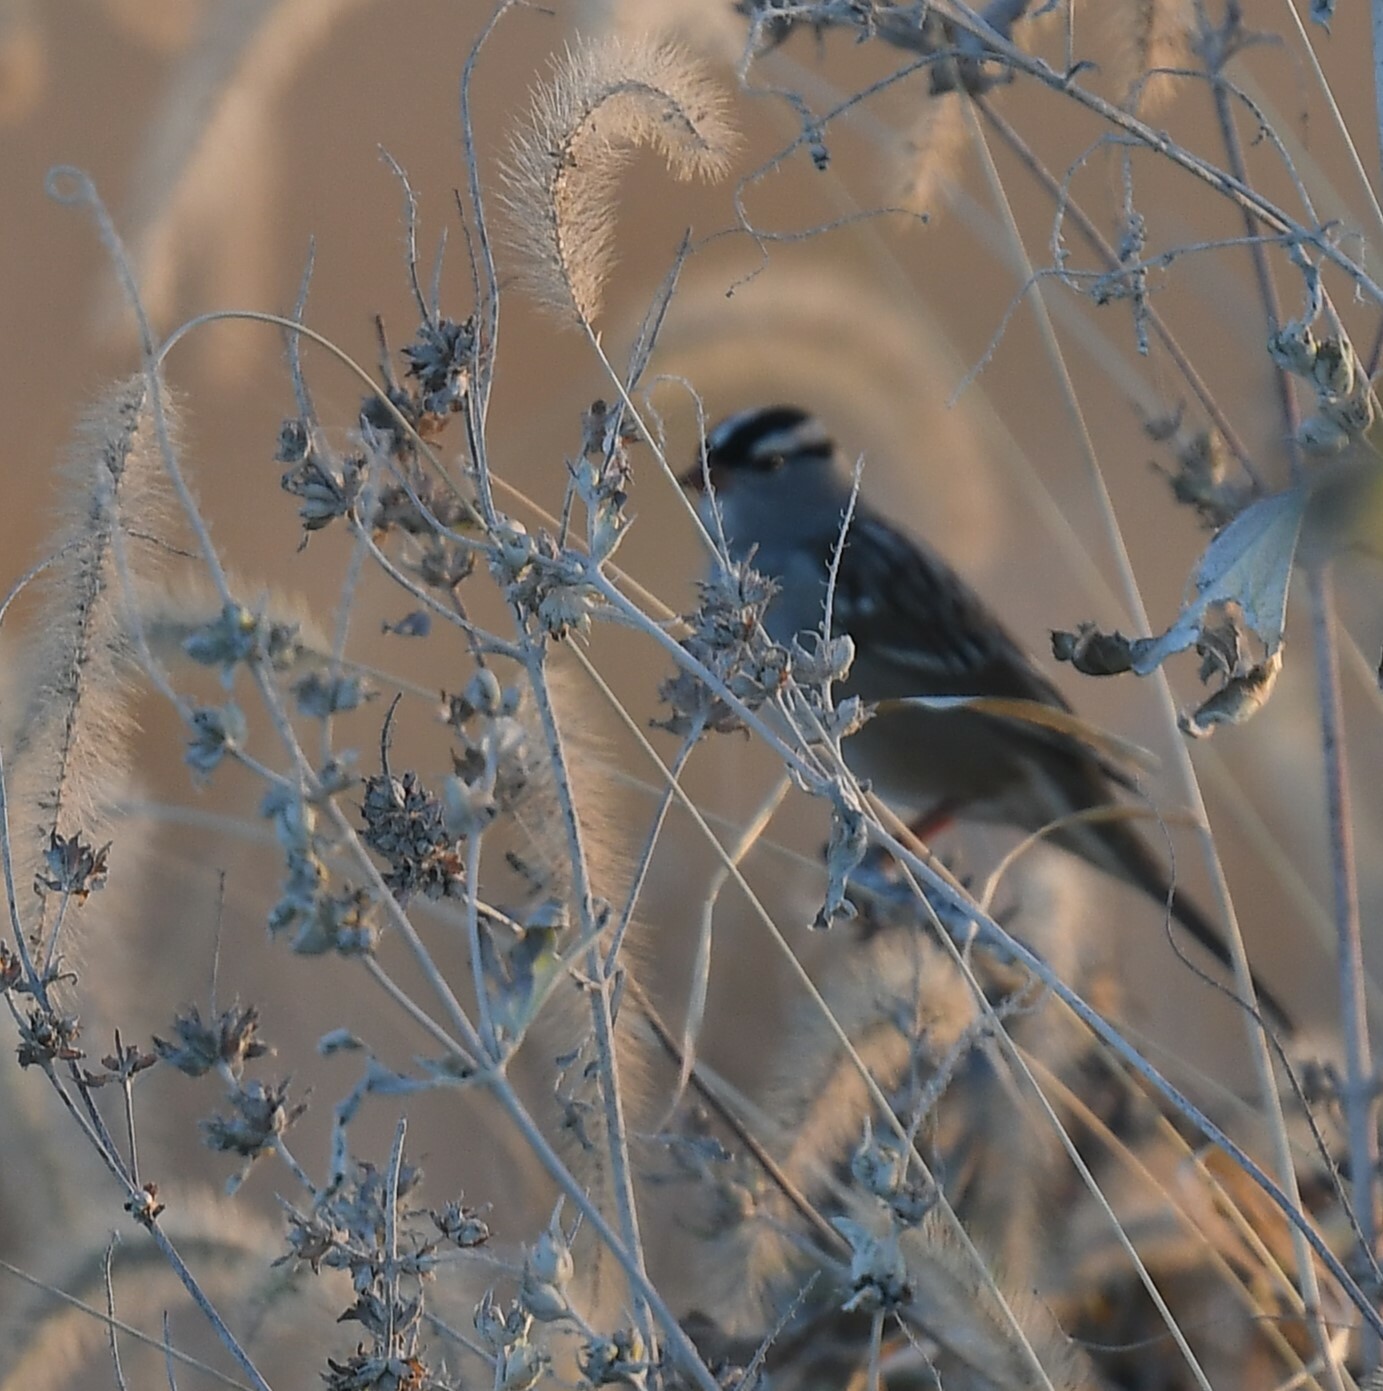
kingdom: Animalia
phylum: Chordata
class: Aves
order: Passeriformes
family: Passerellidae
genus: Zonotrichia
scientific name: Zonotrichia leucophrys
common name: White-crowned sparrow
